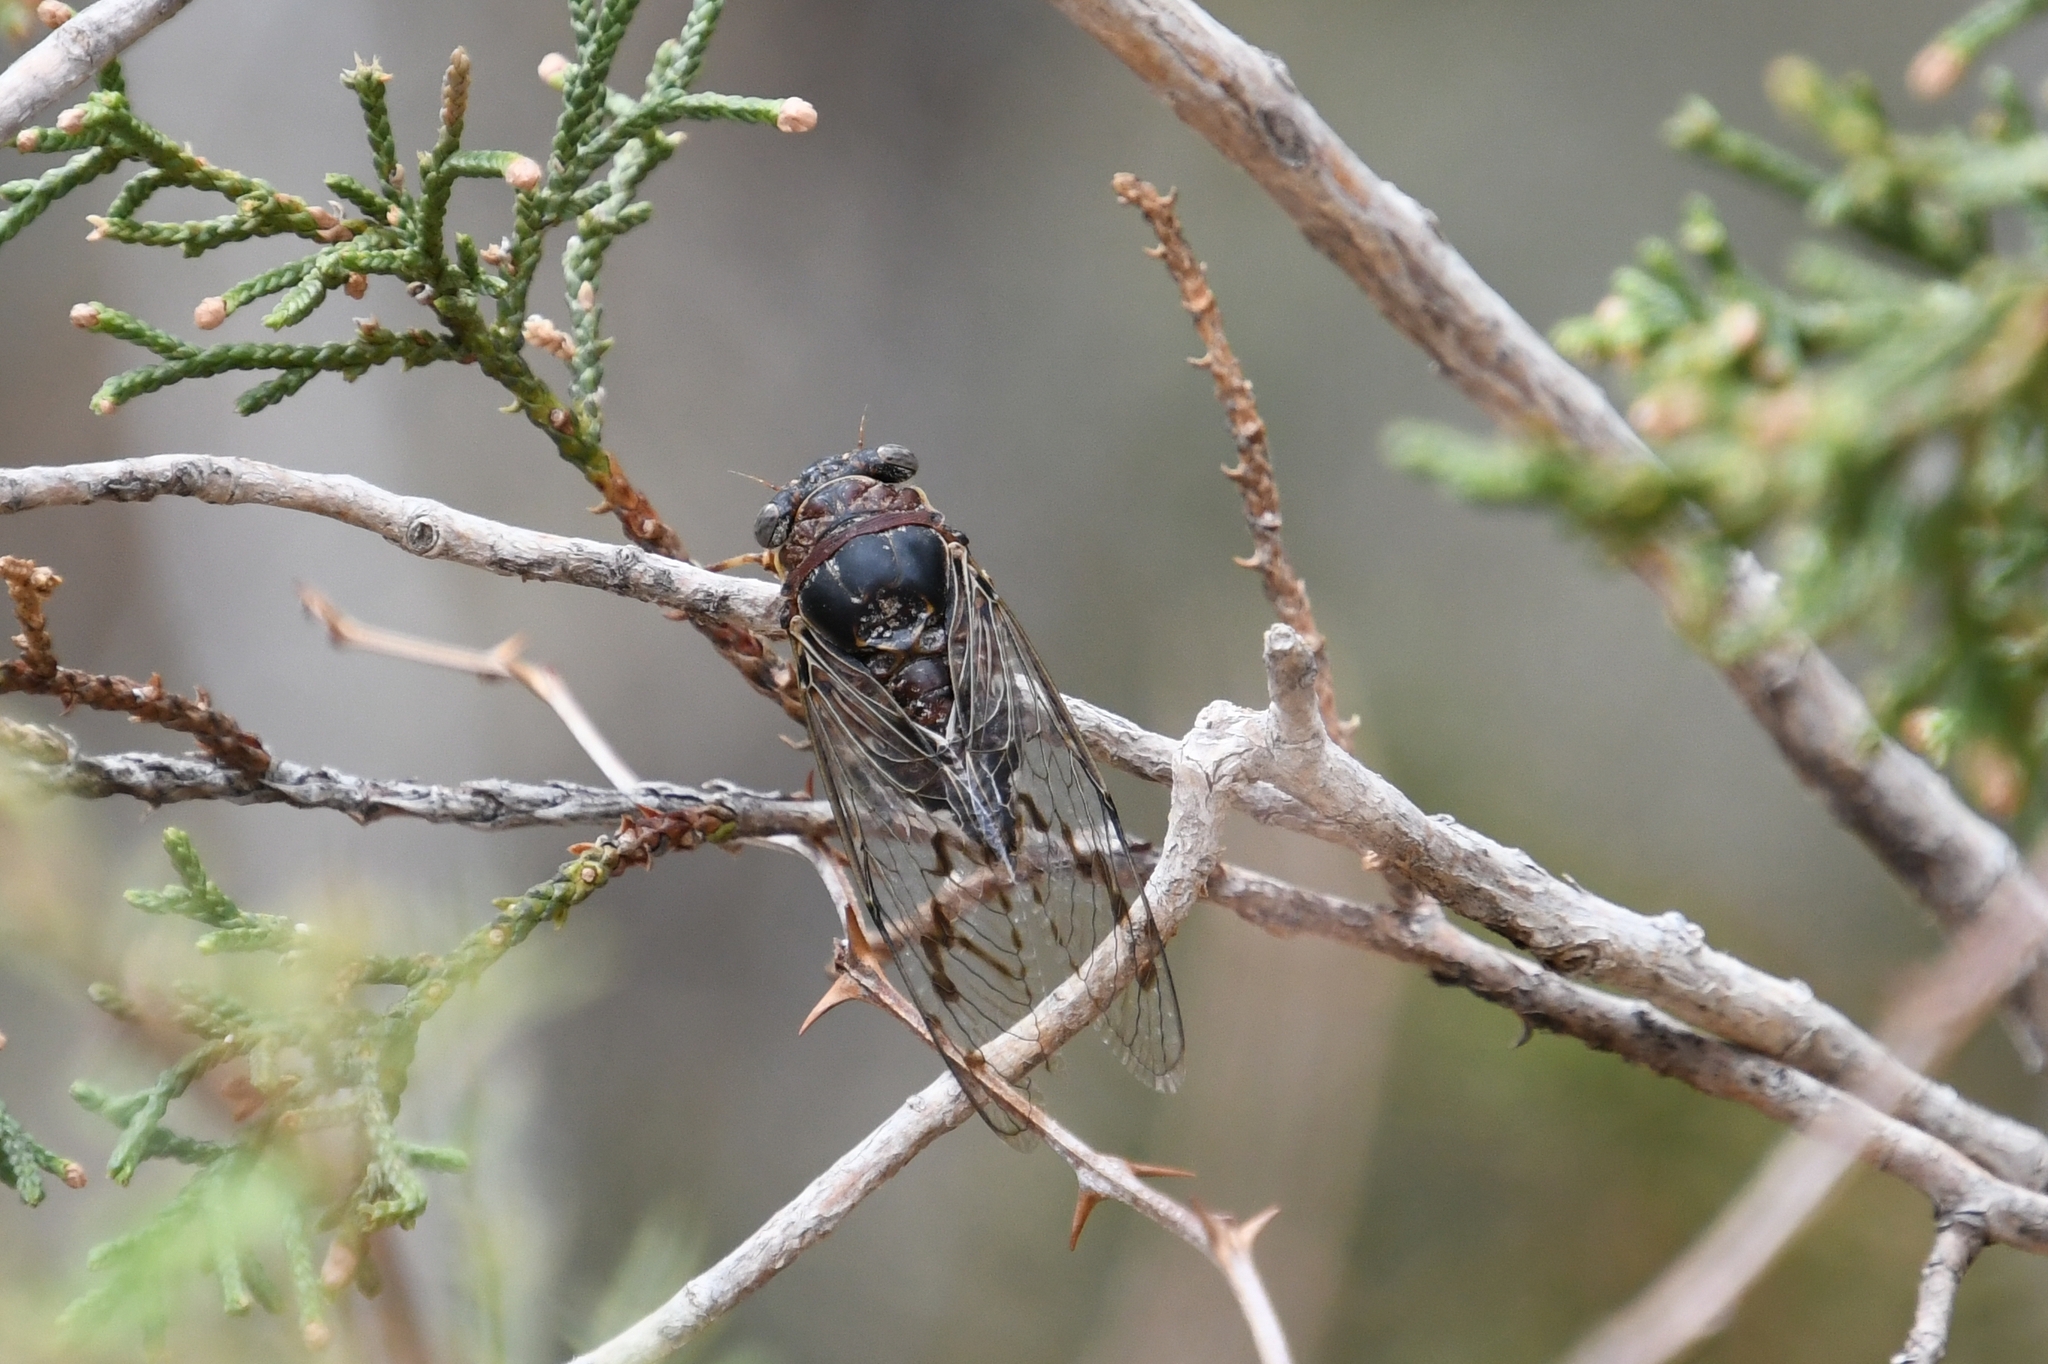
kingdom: Animalia
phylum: Arthropoda
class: Insecta
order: Hemiptera
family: Cicadidae
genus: Diceroprocta
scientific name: Diceroprocta swalei
